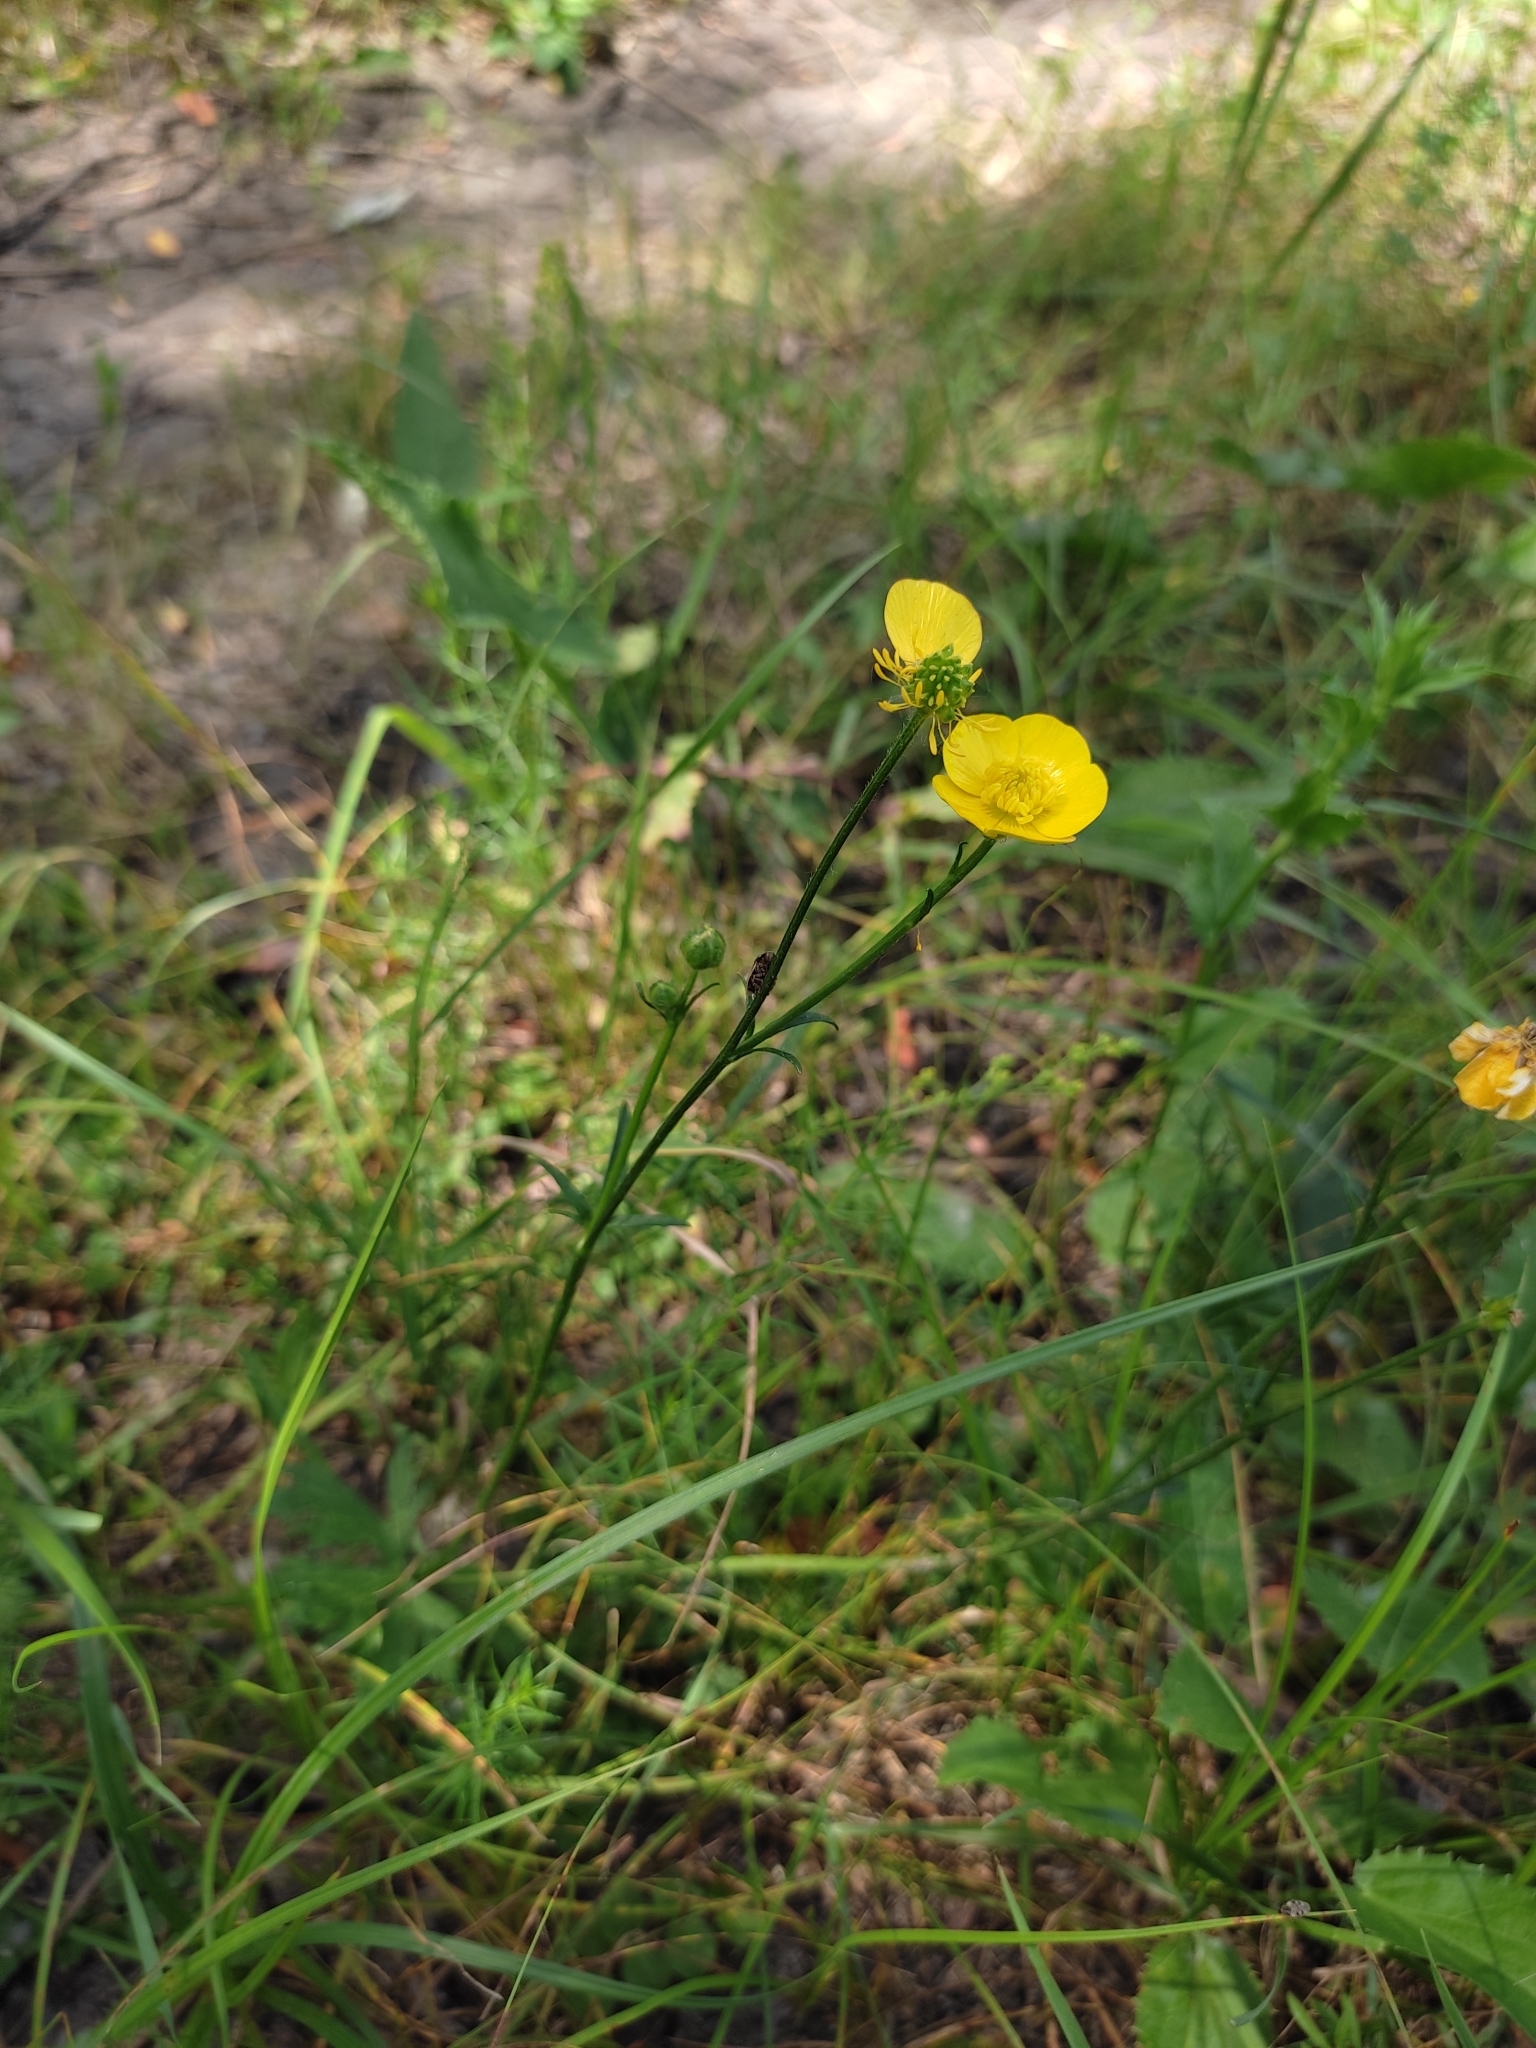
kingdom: Plantae
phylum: Tracheophyta
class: Magnoliopsida
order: Ranunculales
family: Ranunculaceae
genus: Ranunculus
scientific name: Ranunculus polyanthemos
